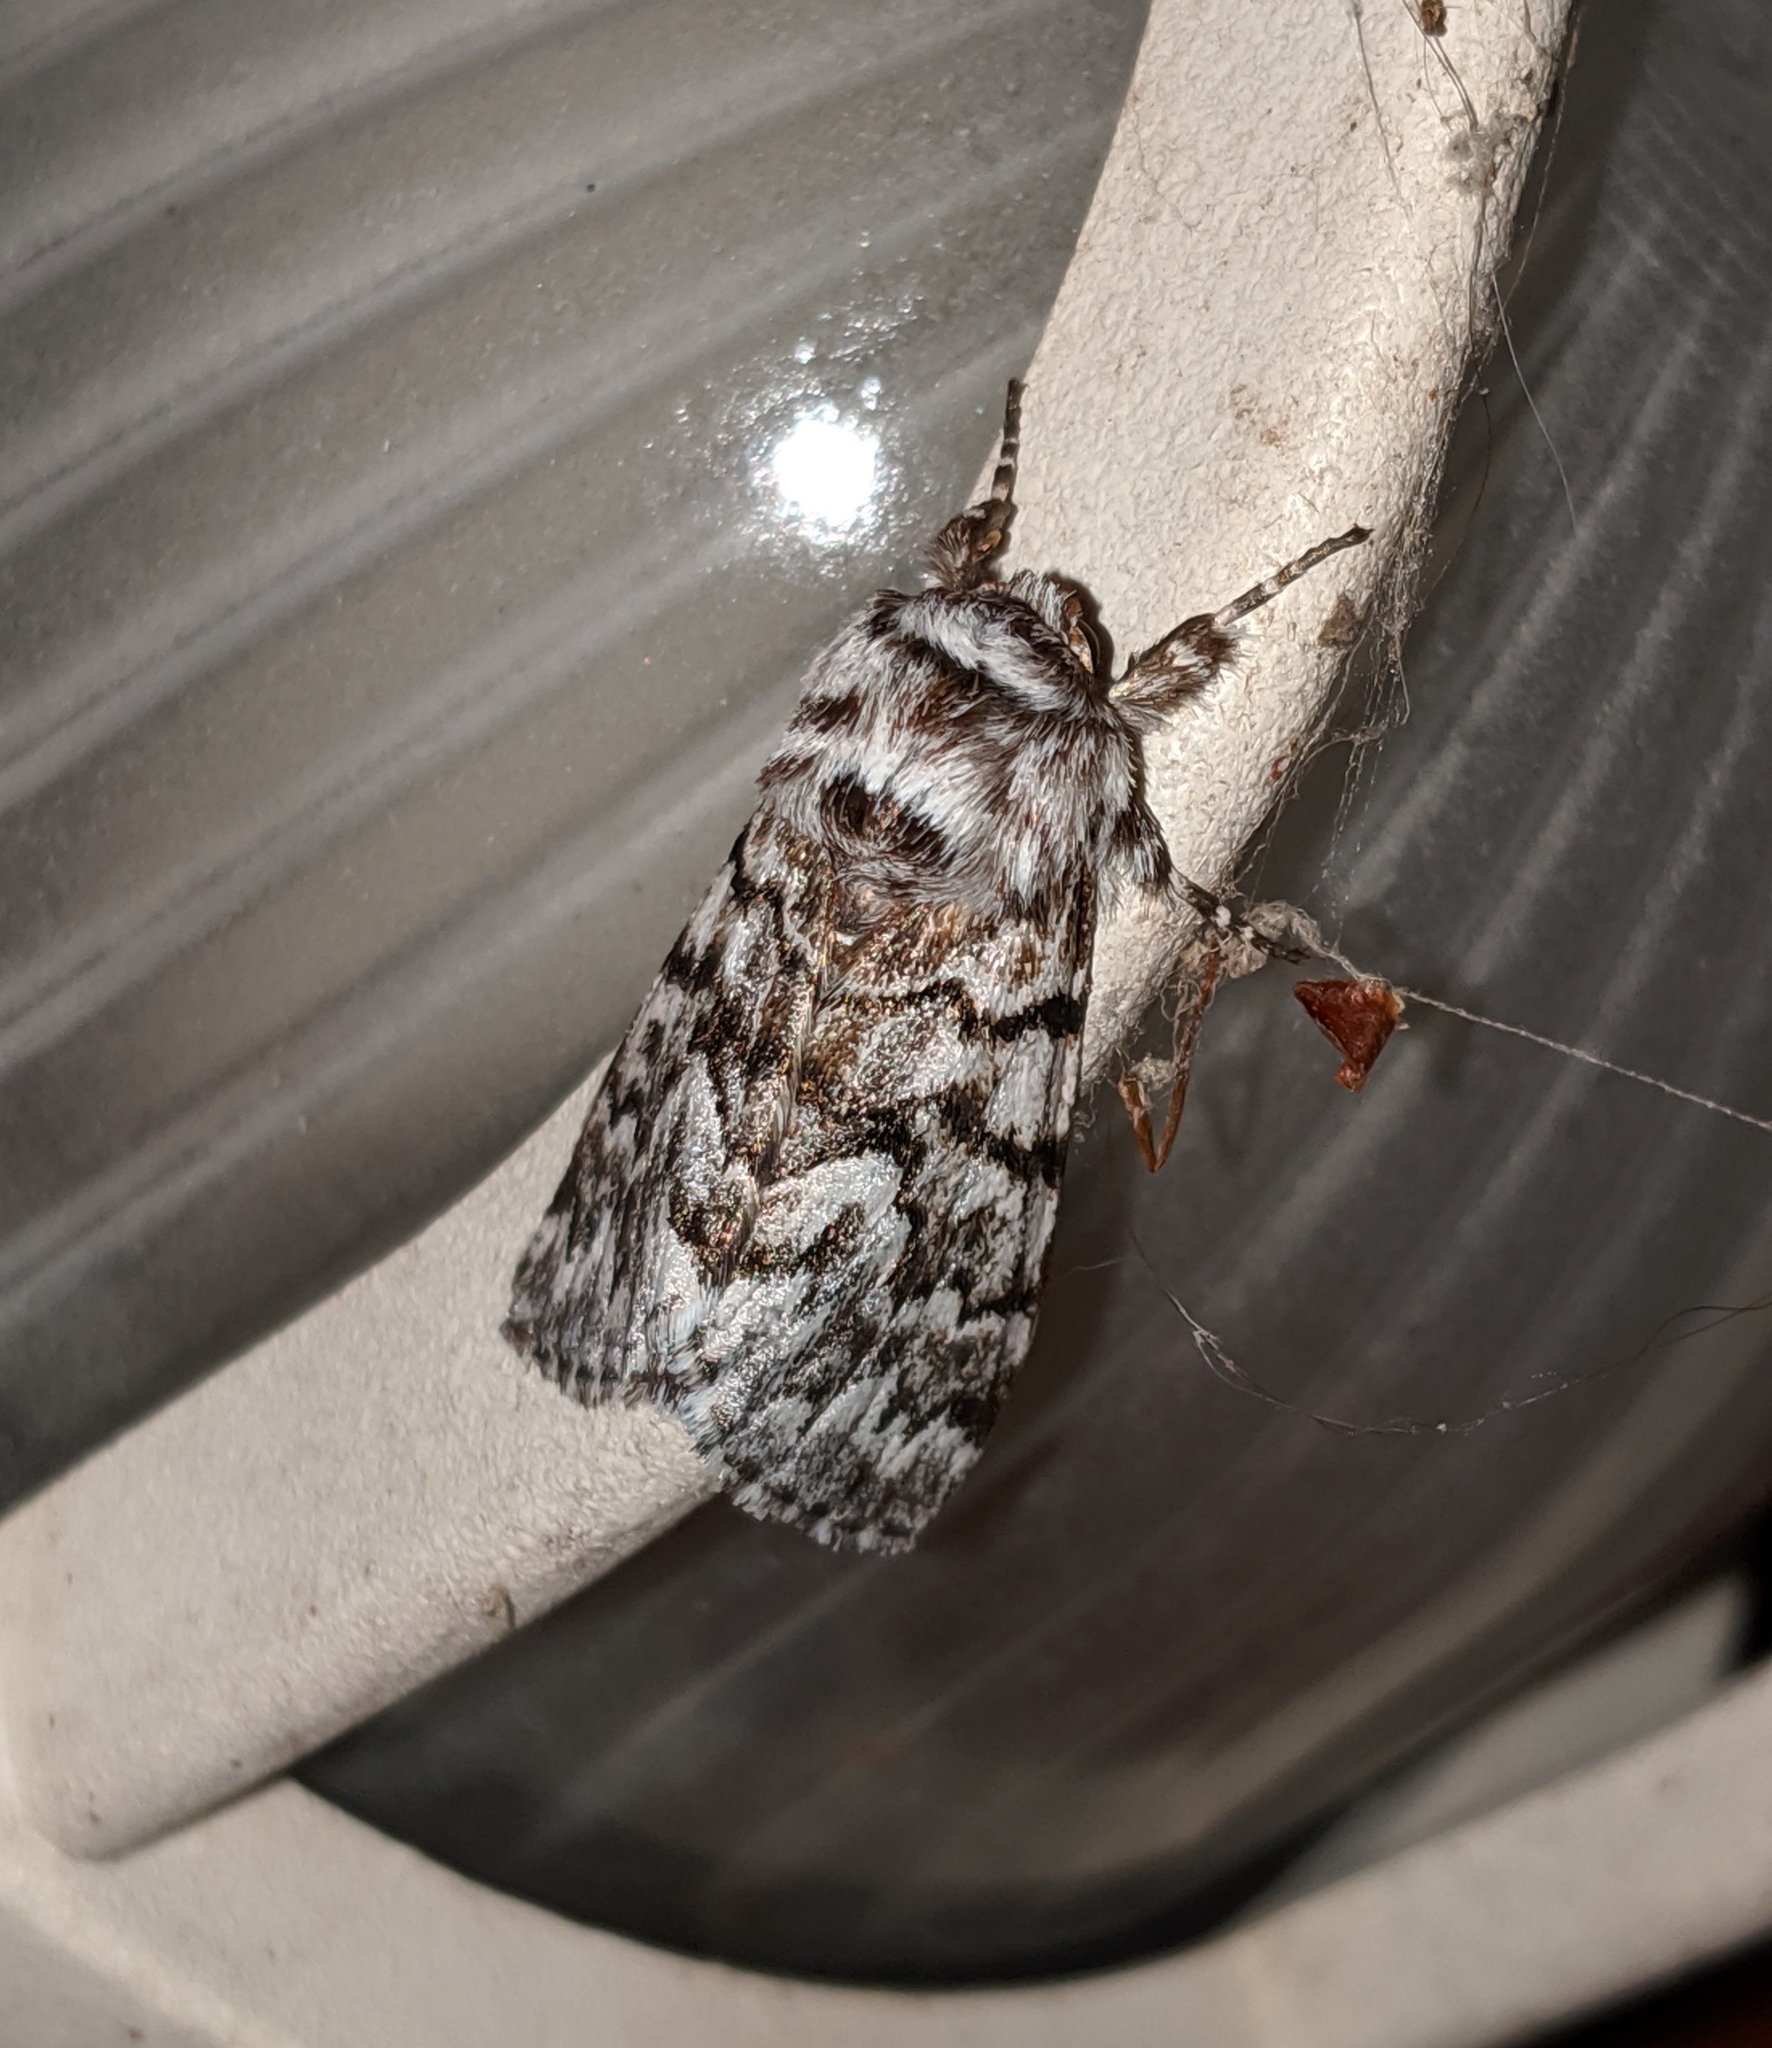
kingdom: Animalia
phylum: Arthropoda
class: Insecta
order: Lepidoptera
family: Noctuidae
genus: Panthea
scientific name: Panthea virginarius
